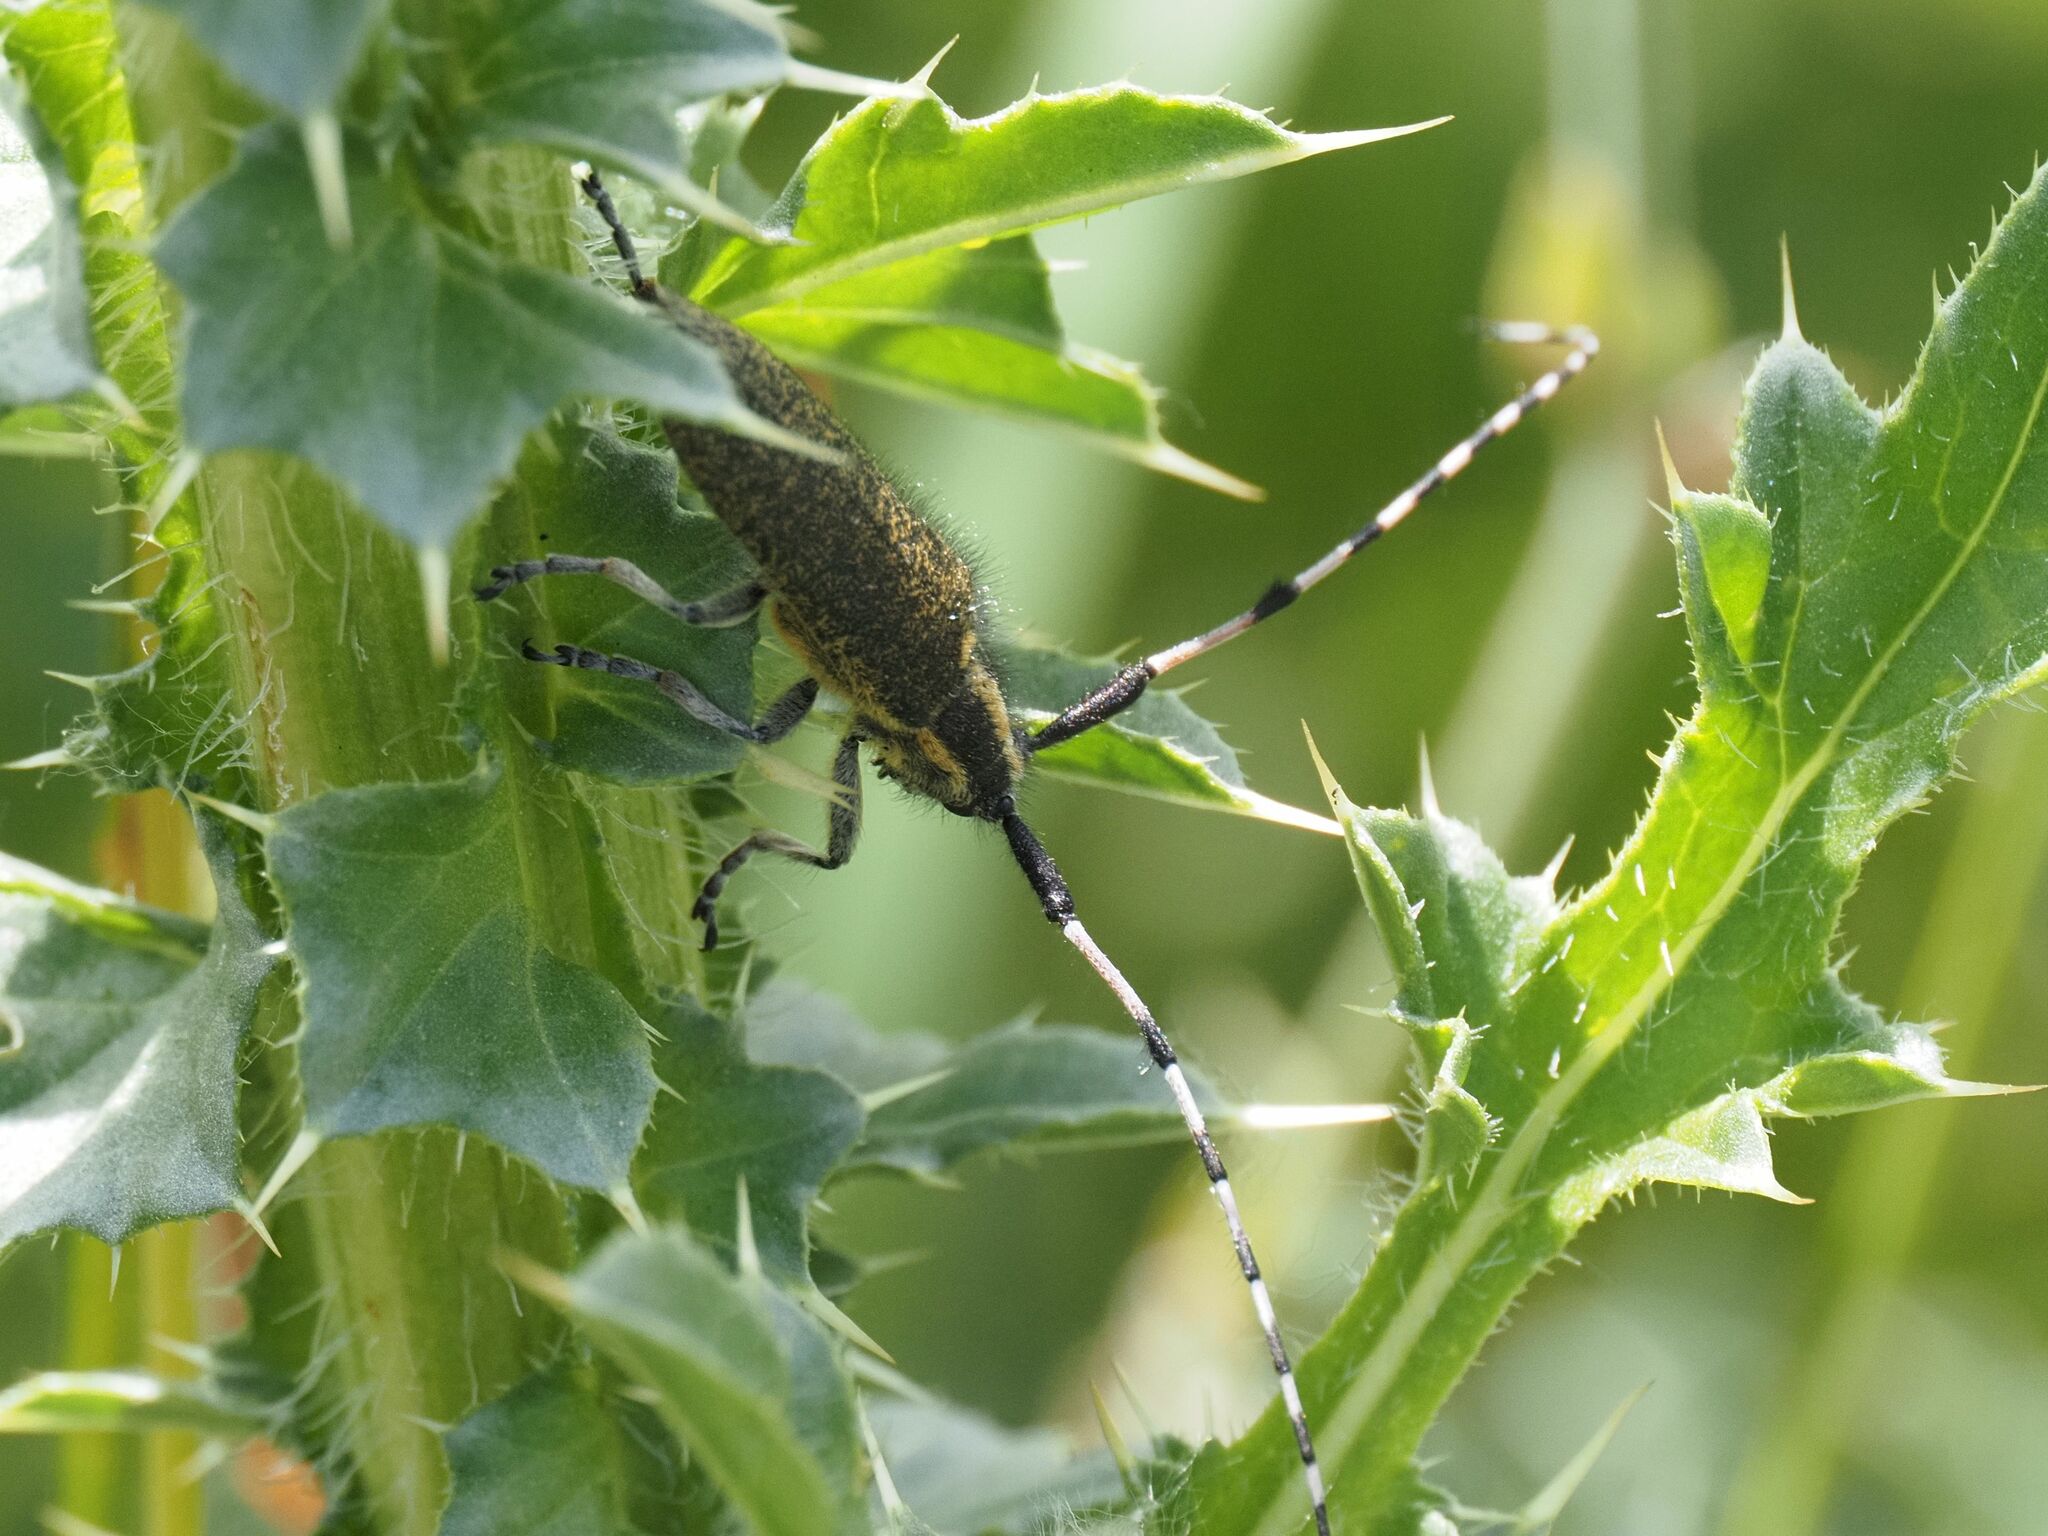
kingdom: Animalia
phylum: Arthropoda
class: Insecta
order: Coleoptera
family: Cerambycidae
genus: Agapanthia
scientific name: Agapanthia dahlii
